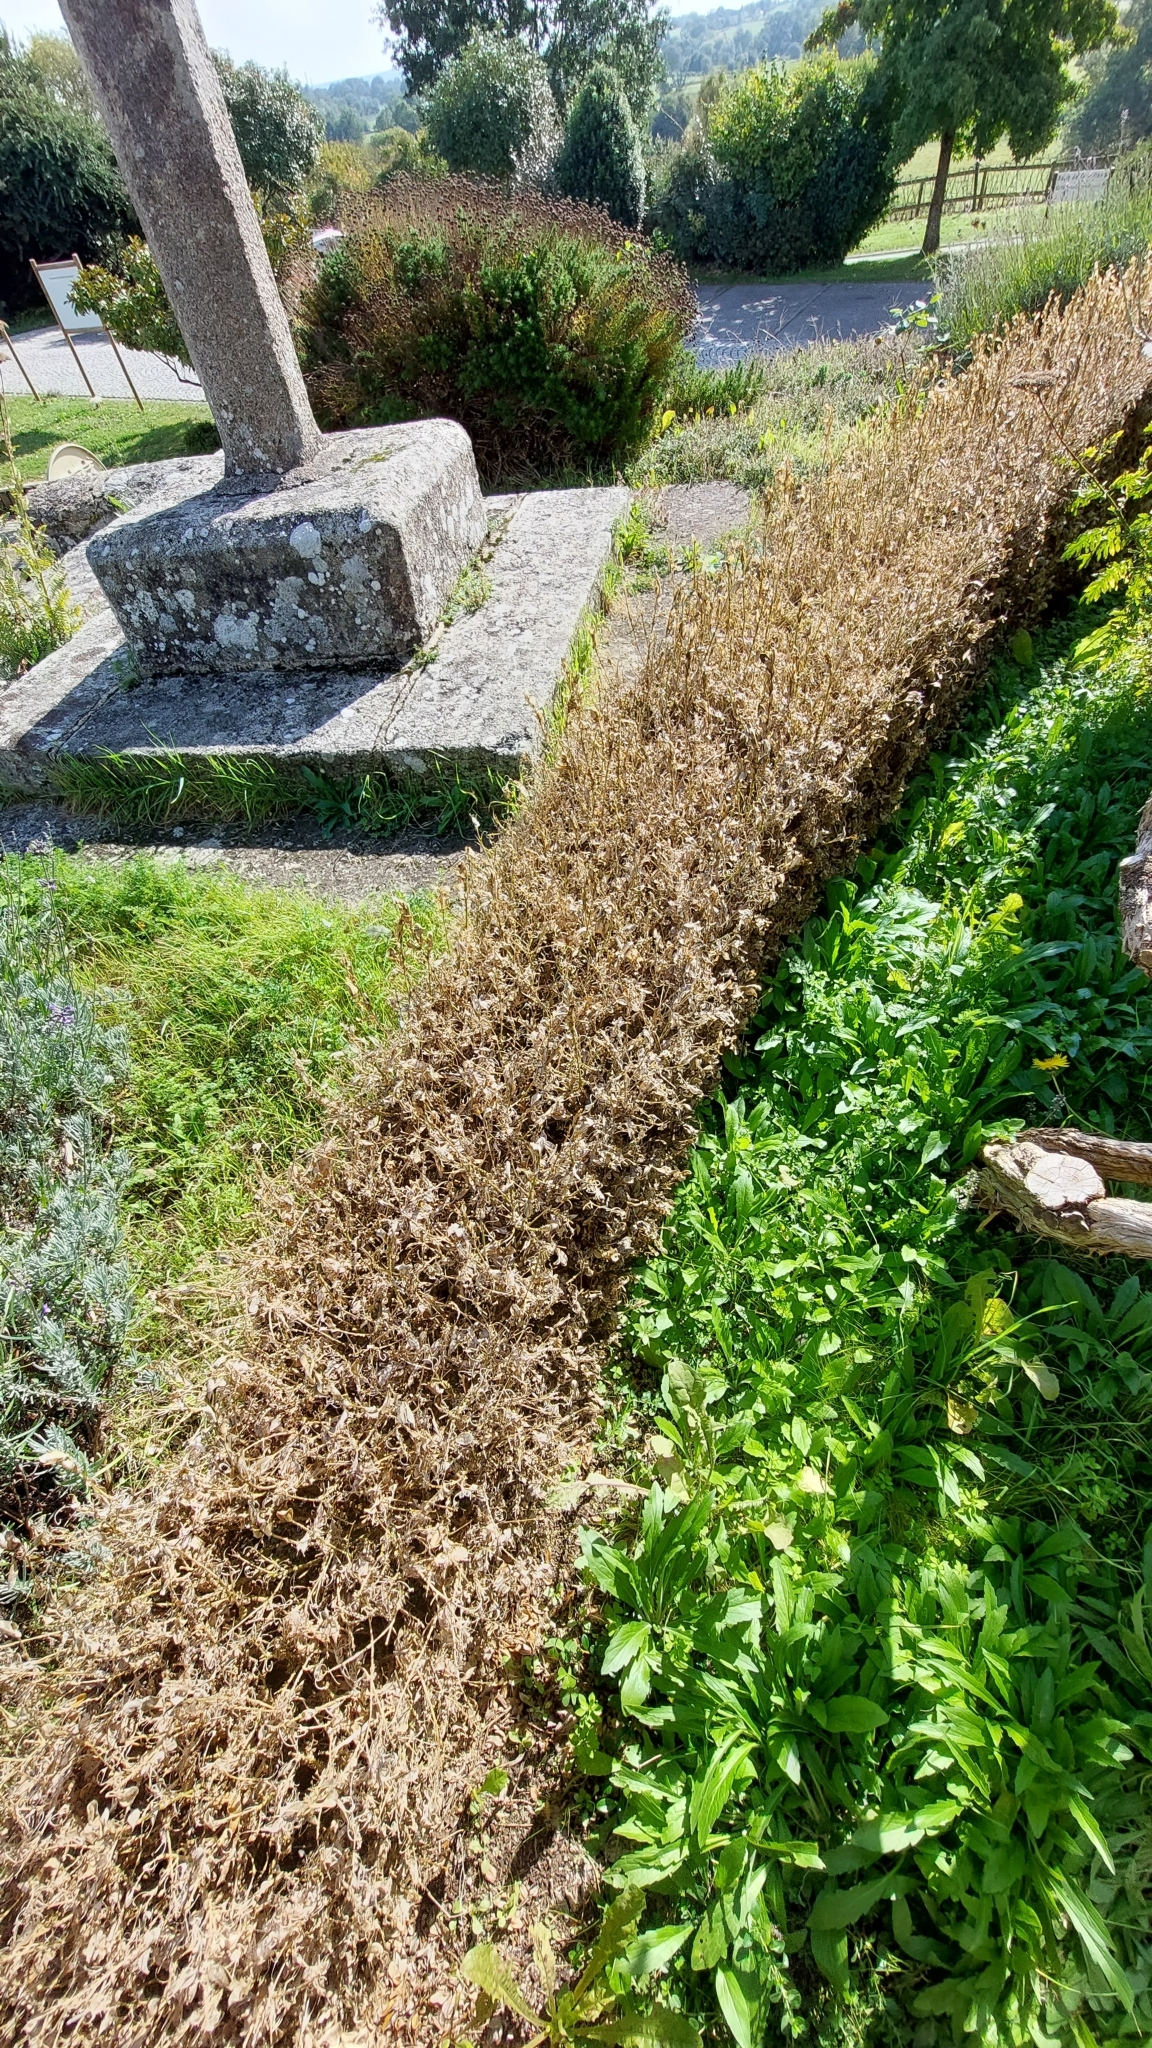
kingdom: Animalia
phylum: Arthropoda
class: Insecta
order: Lepidoptera
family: Crambidae
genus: Cydalima
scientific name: Cydalima perspectalis
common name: Box tree moth
